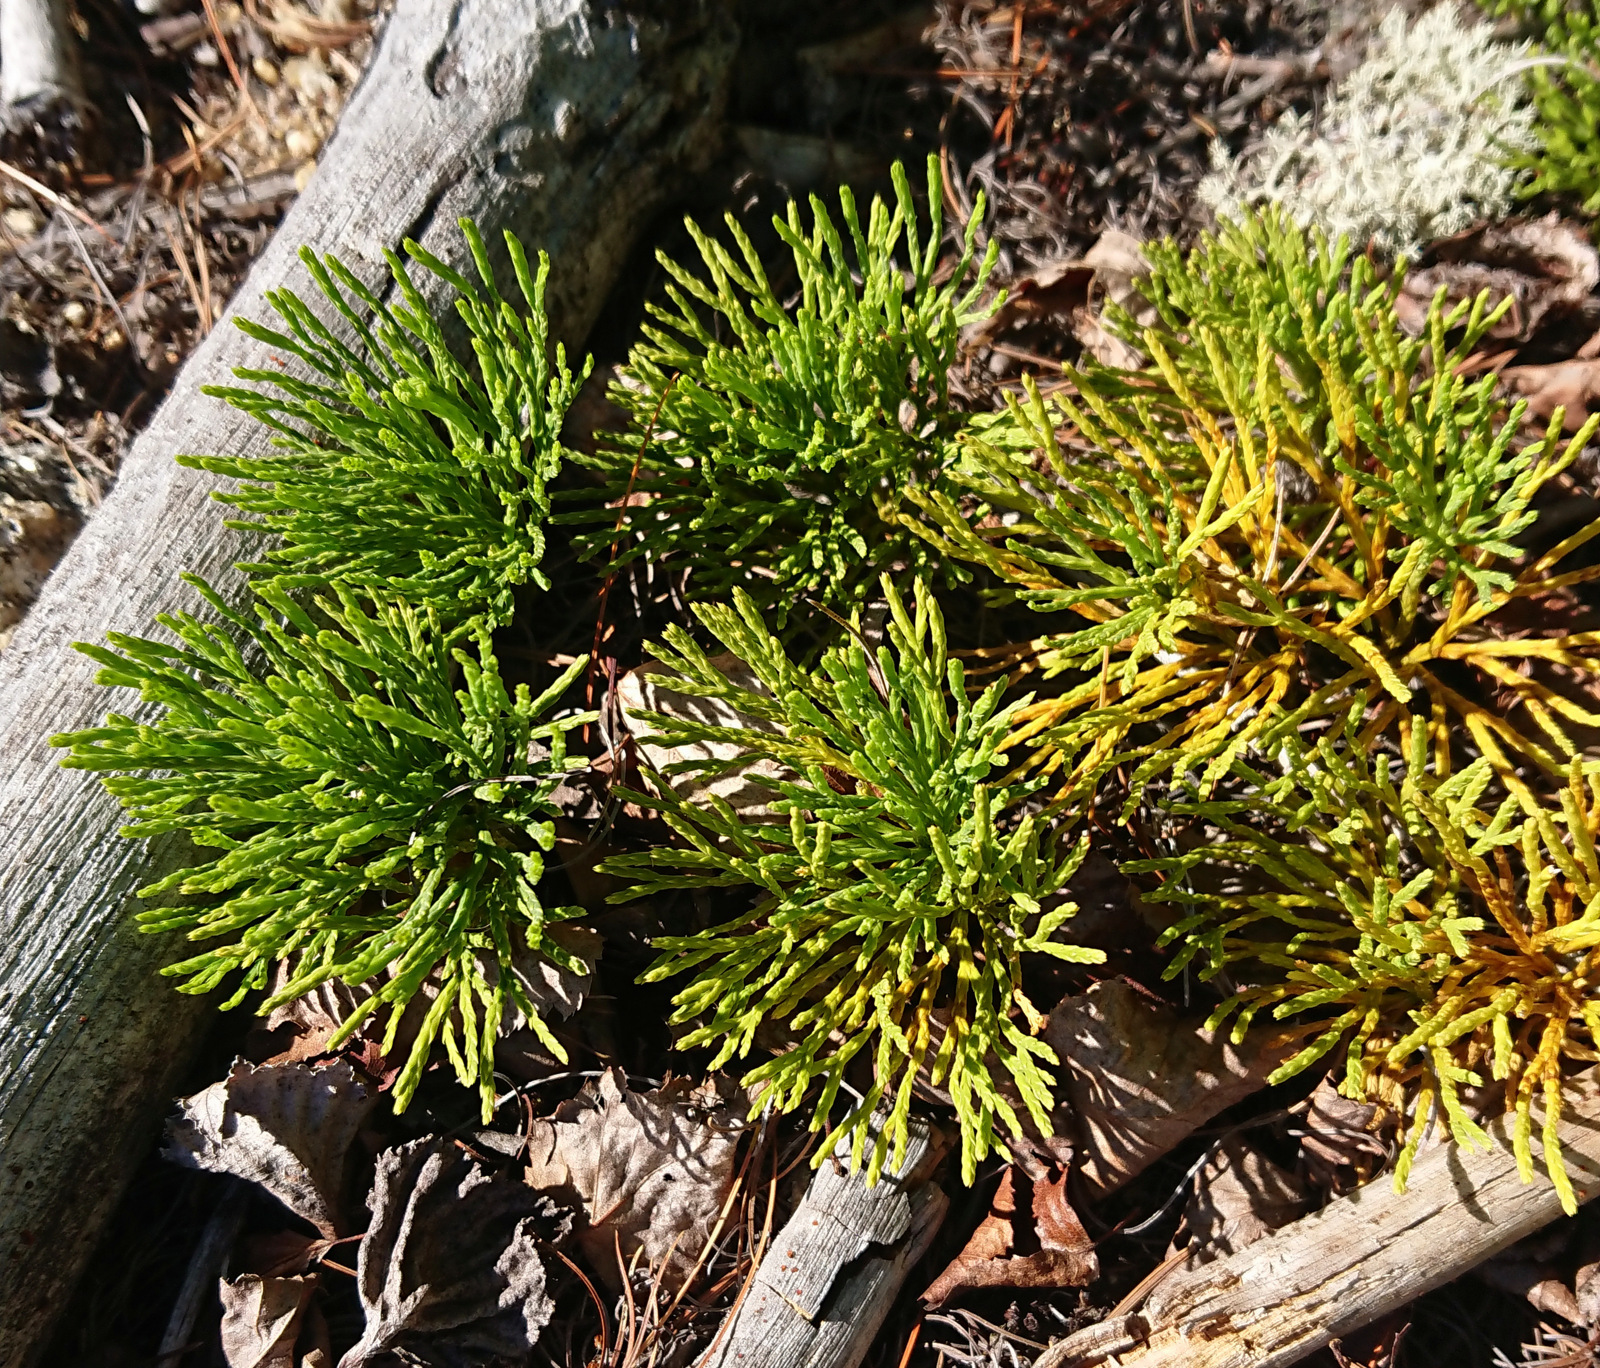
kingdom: Plantae
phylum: Tracheophyta
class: Lycopodiopsida
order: Lycopodiales
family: Lycopodiaceae
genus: Diphasiastrum
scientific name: Diphasiastrum tristachyum
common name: Blue ground-cedar
